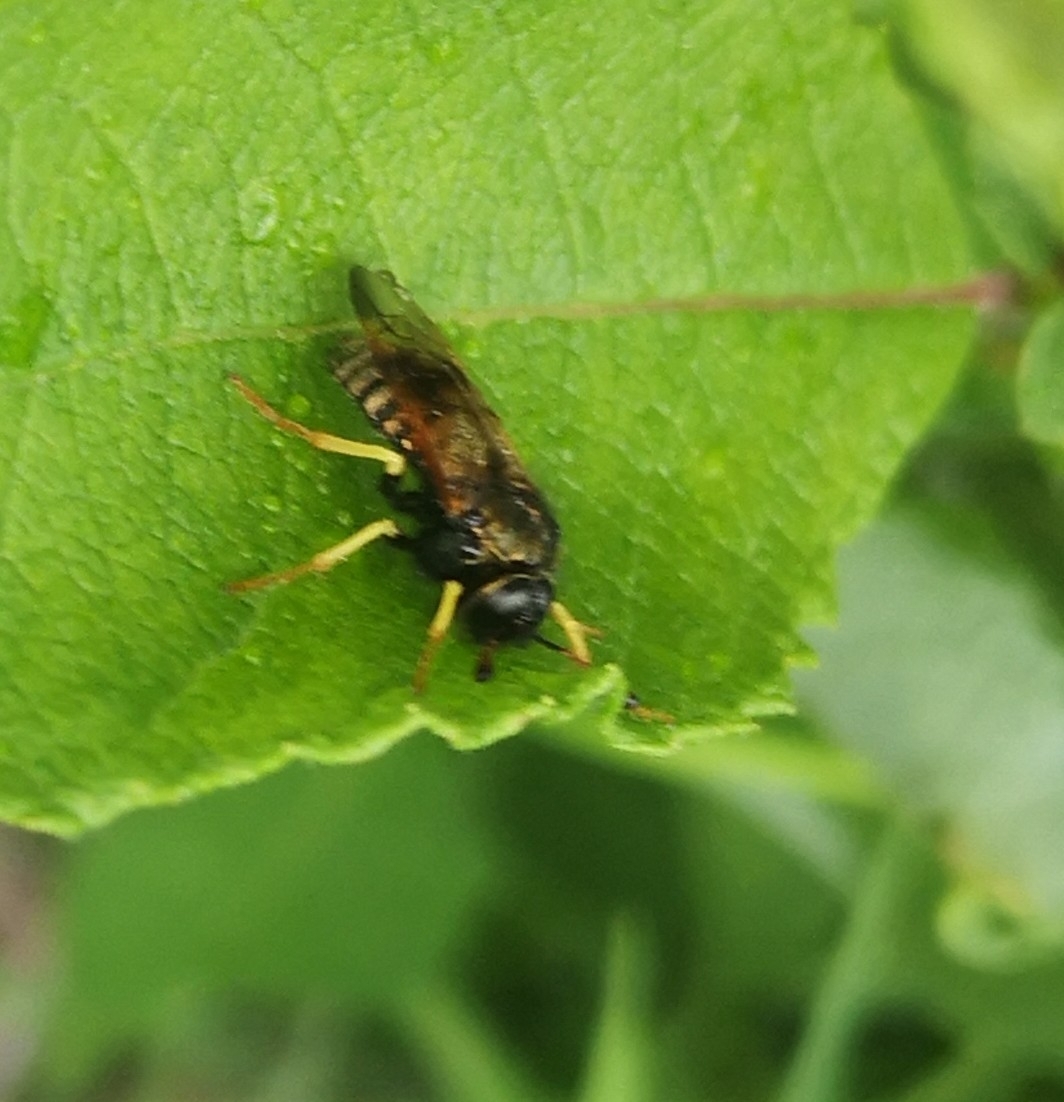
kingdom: Animalia
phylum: Arthropoda
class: Insecta
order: Hymenoptera
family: Cimbicidae
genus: Abia
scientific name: Abia candens
